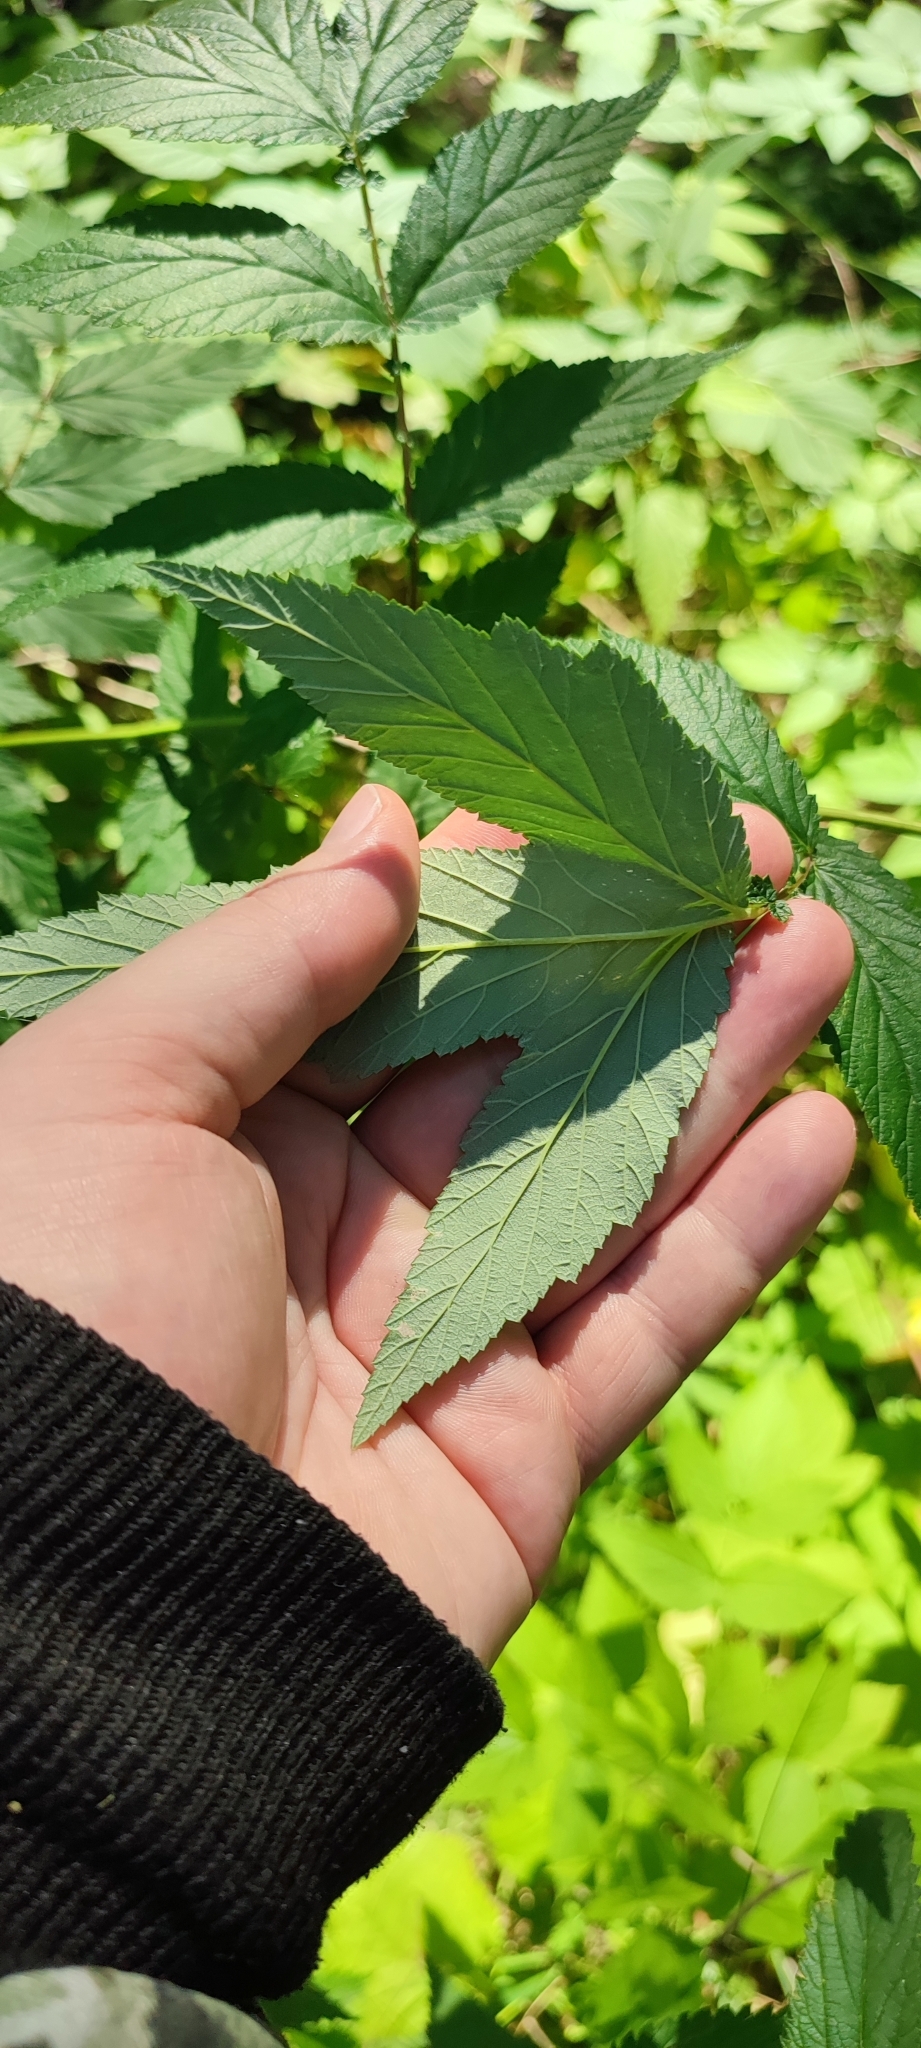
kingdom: Plantae
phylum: Tracheophyta
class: Magnoliopsida
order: Rosales
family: Rosaceae
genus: Filipendula
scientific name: Filipendula ulmaria
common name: Meadowsweet
